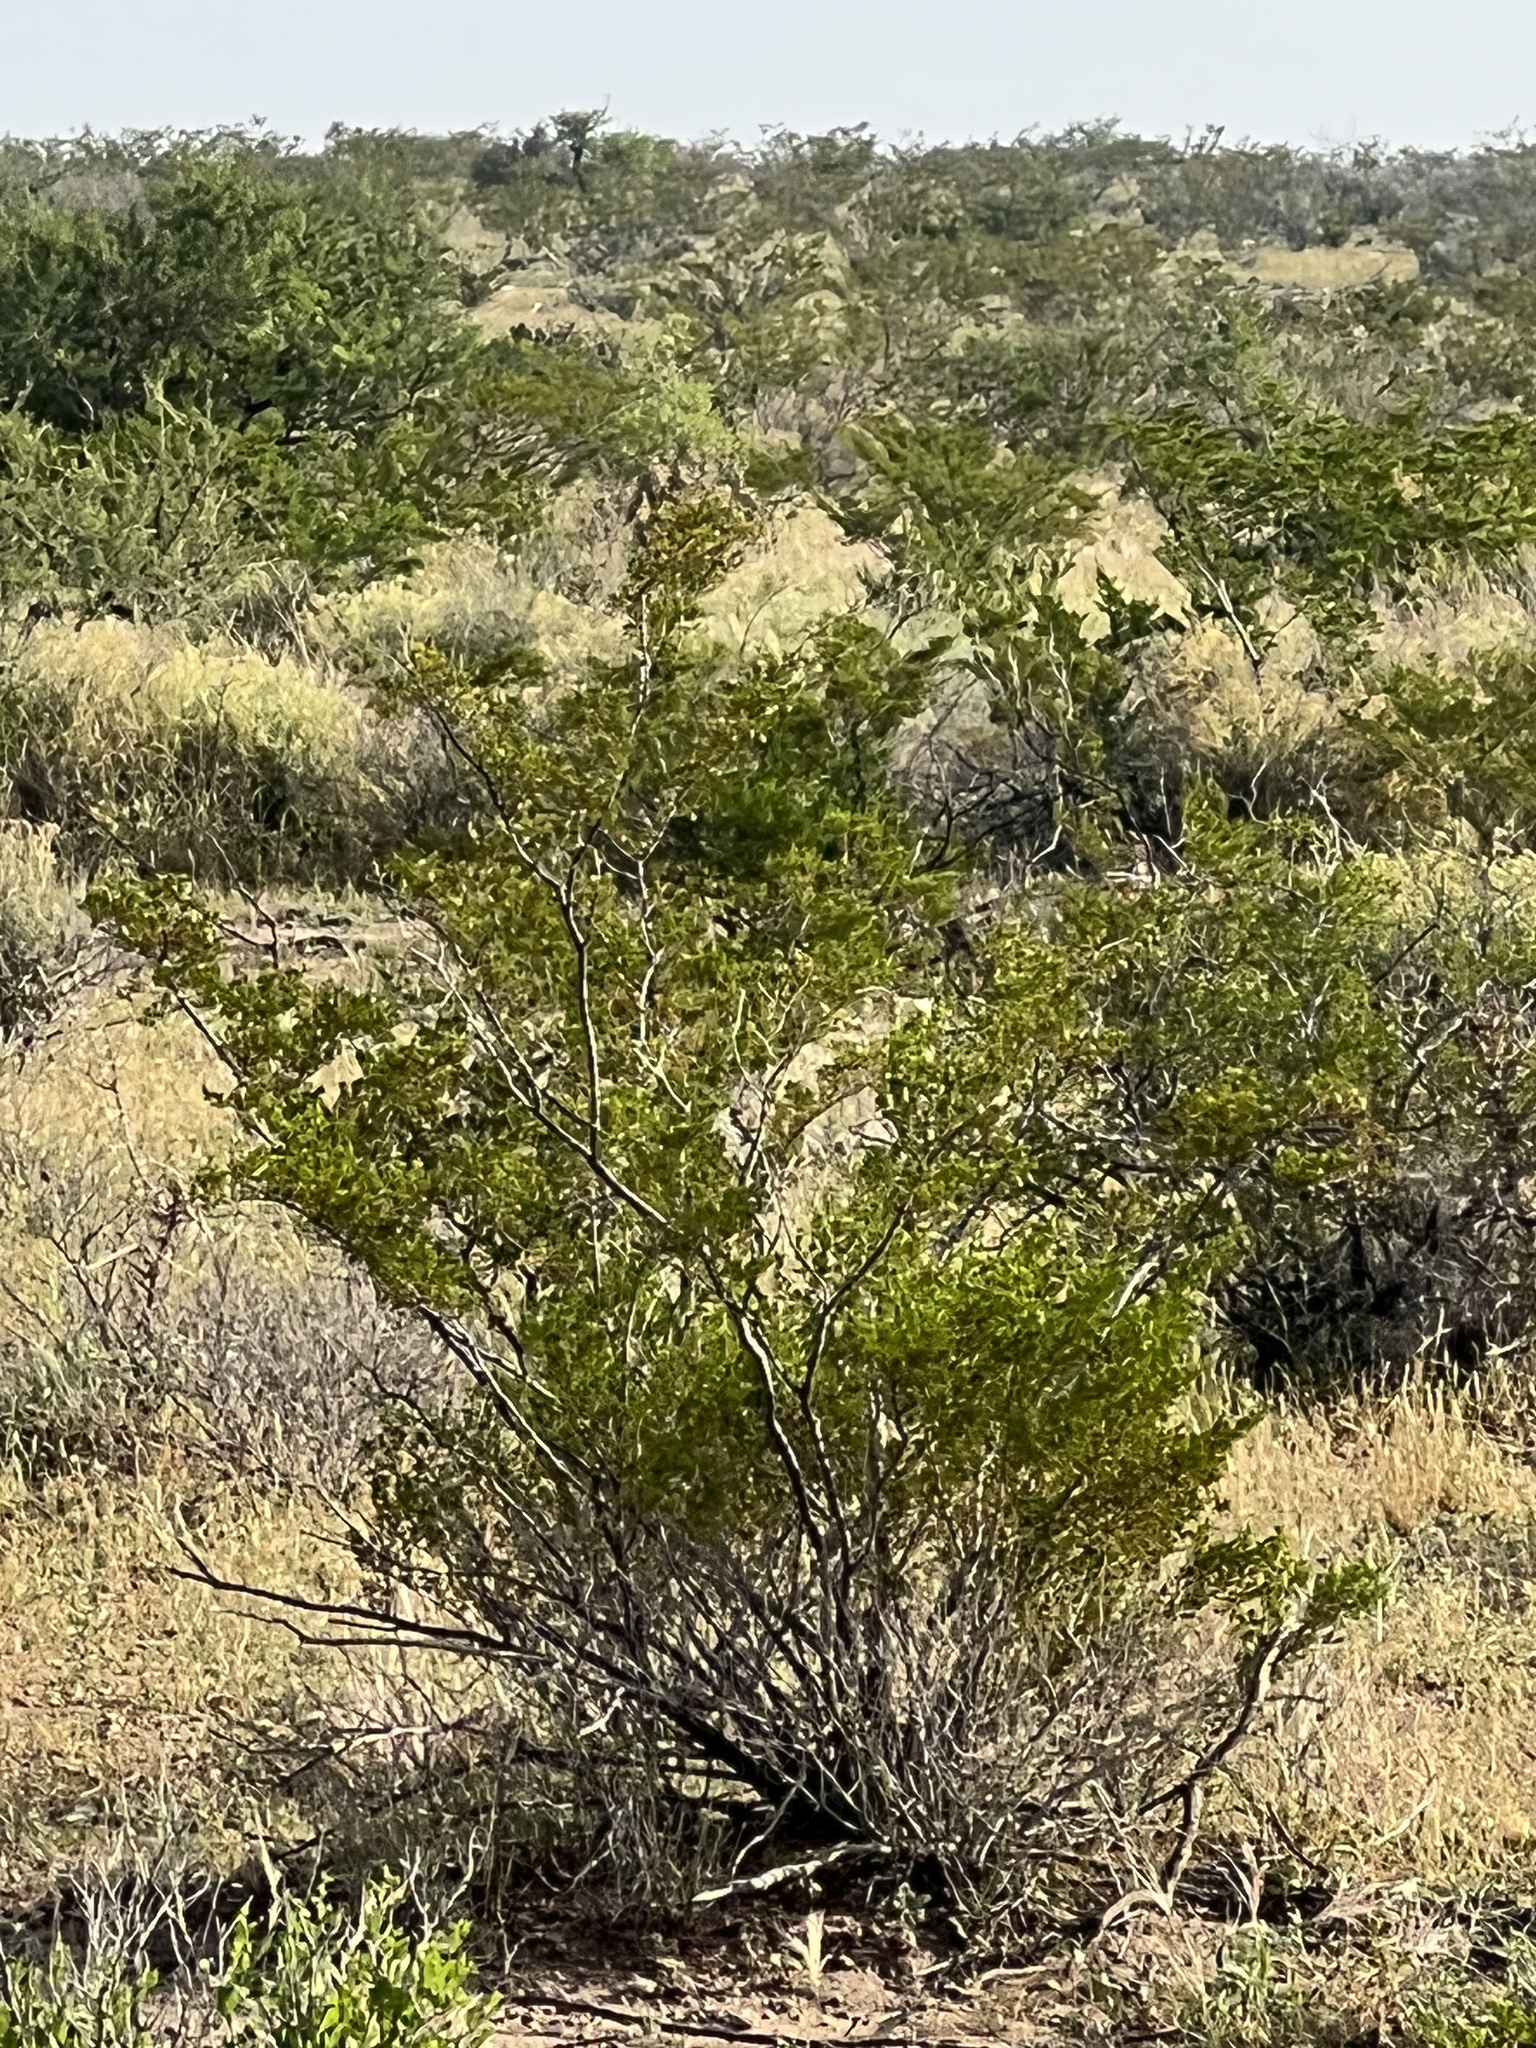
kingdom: Plantae
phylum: Tracheophyta
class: Magnoliopsida
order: Zygophyllales
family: Zygophyllaceae
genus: Larrea
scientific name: Larrea tridentata
